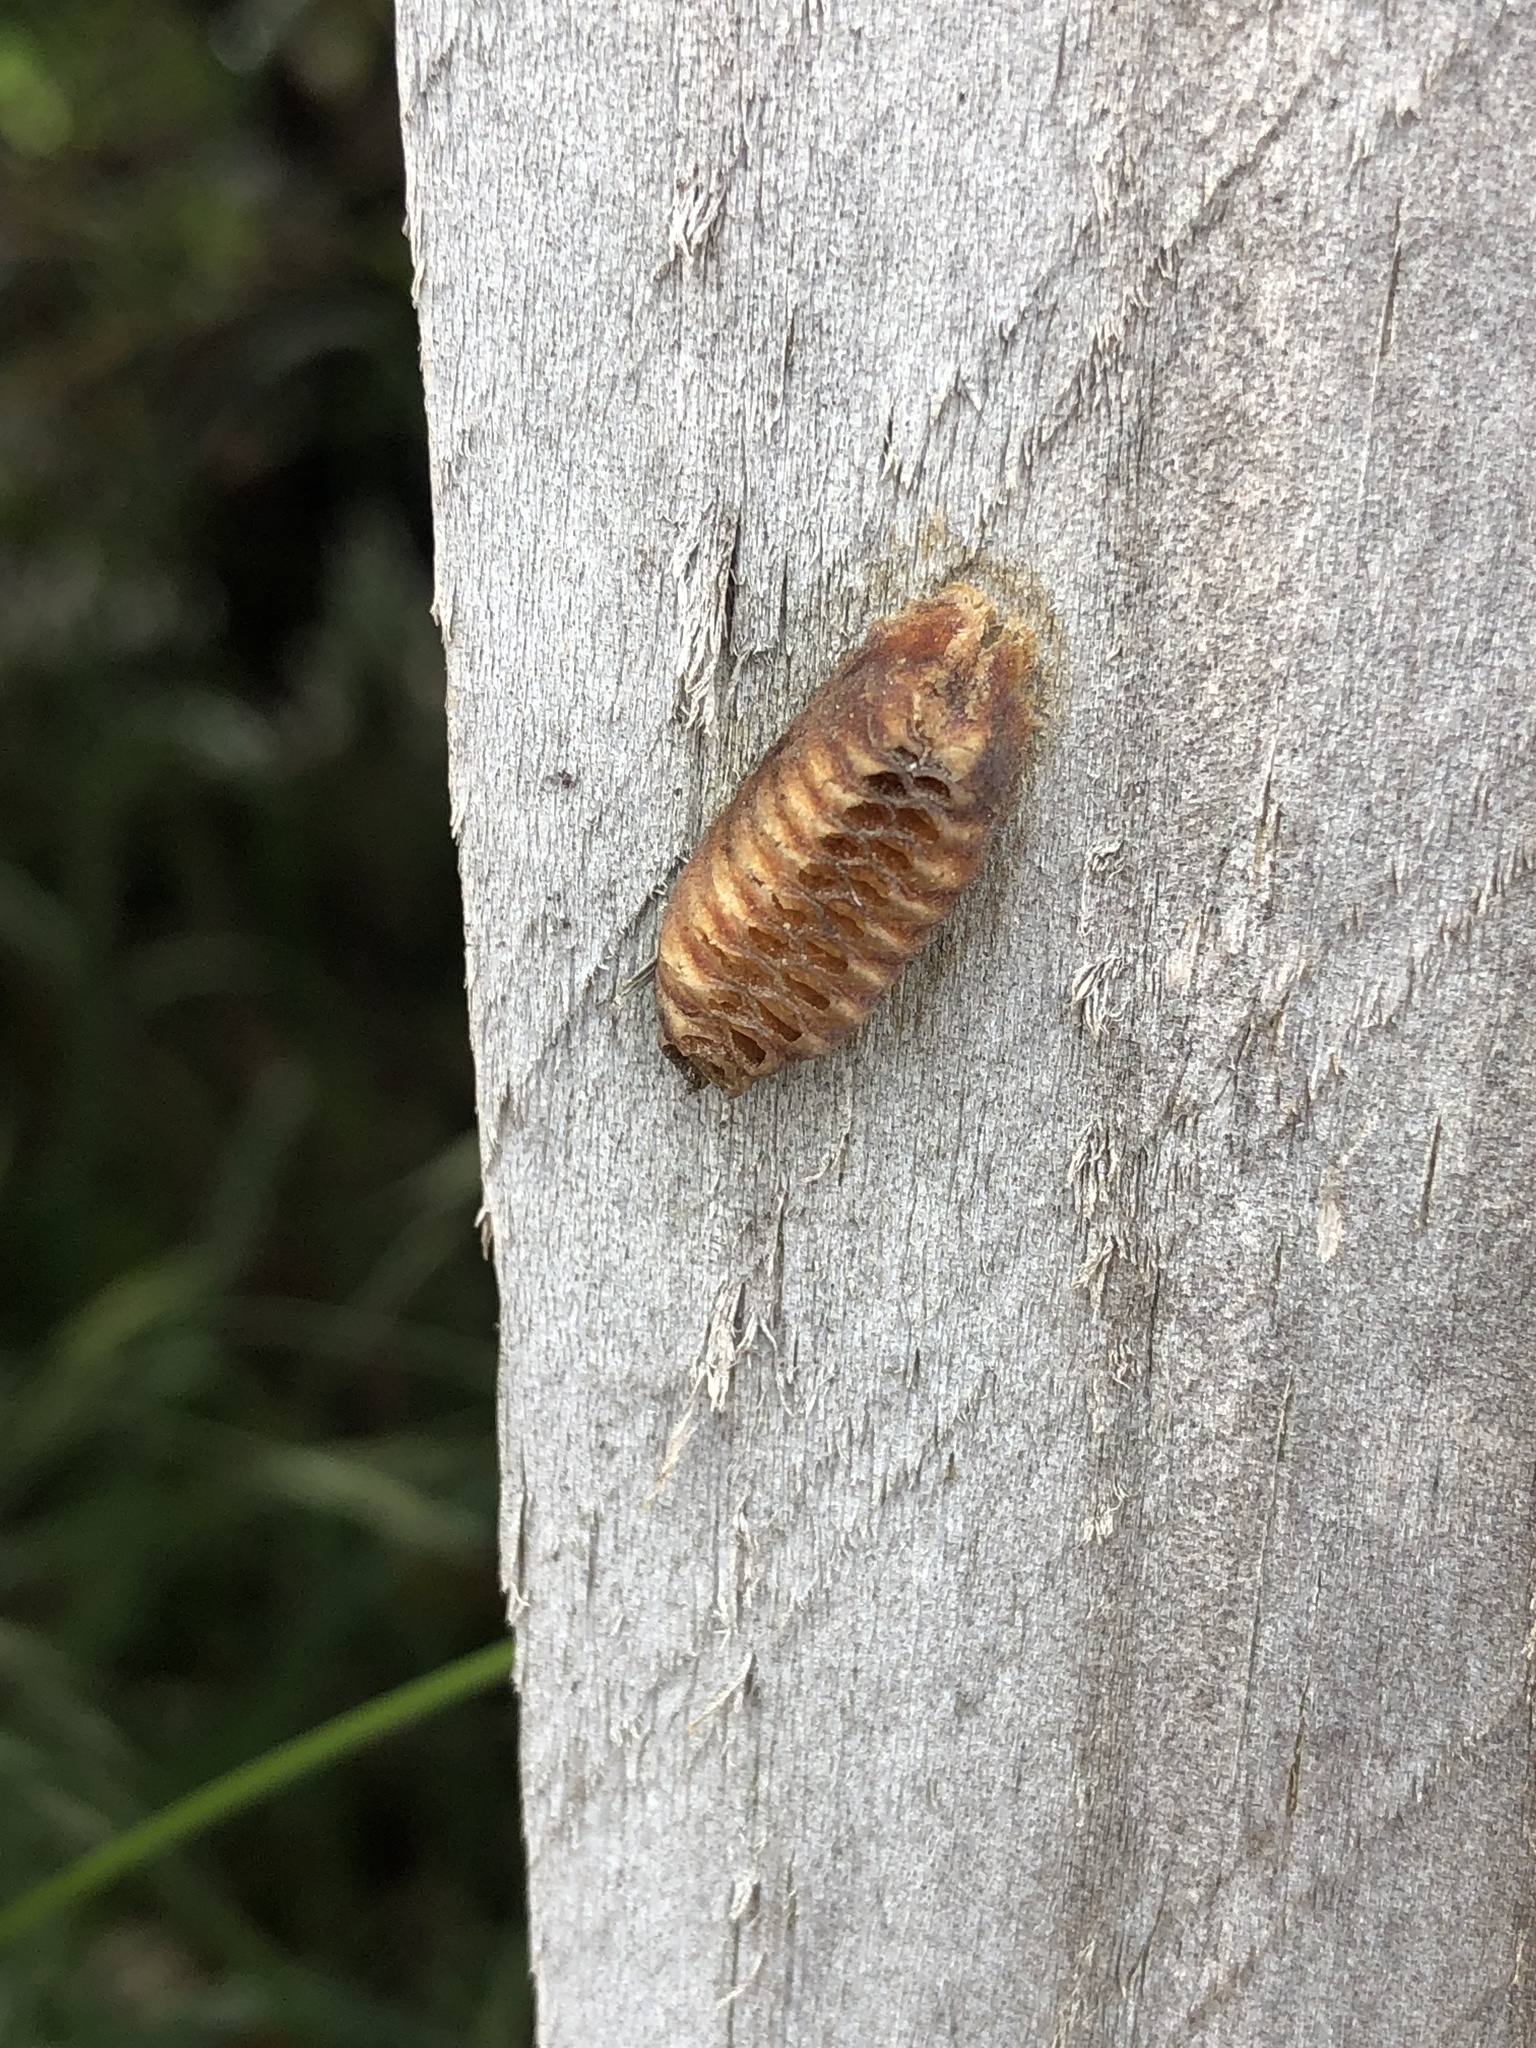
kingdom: Animalia
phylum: Arthropoda
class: Insecta
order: Mantodea
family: Mantidae
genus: Orthodera
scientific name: Orthodera novaezealandiae
